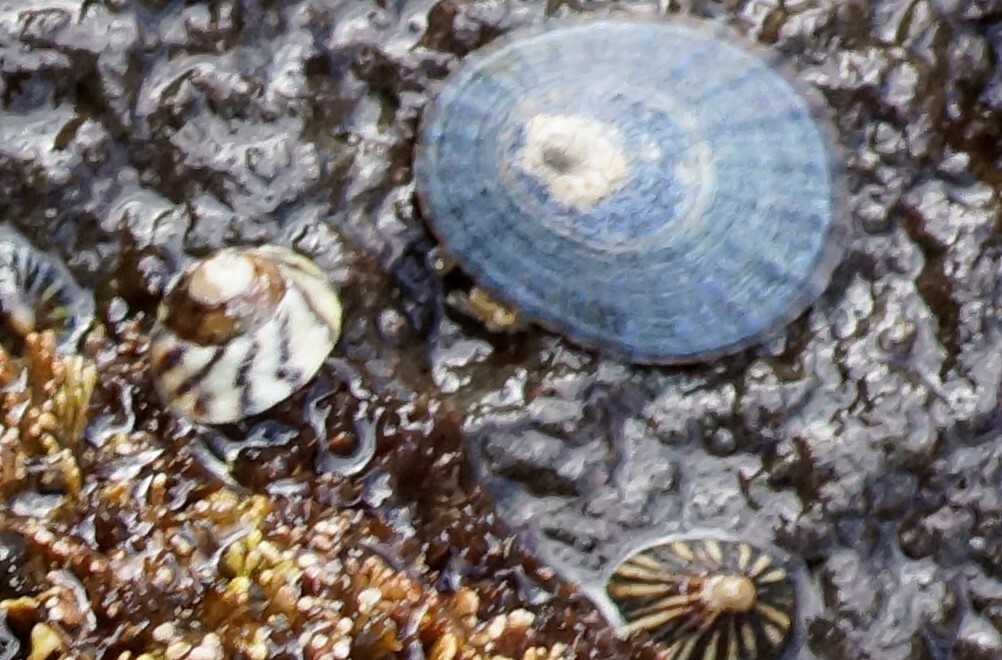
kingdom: Animalia
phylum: Mollusca
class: Gastropoda
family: Nacellidae
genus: Cellana
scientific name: Cellana tramoserica
